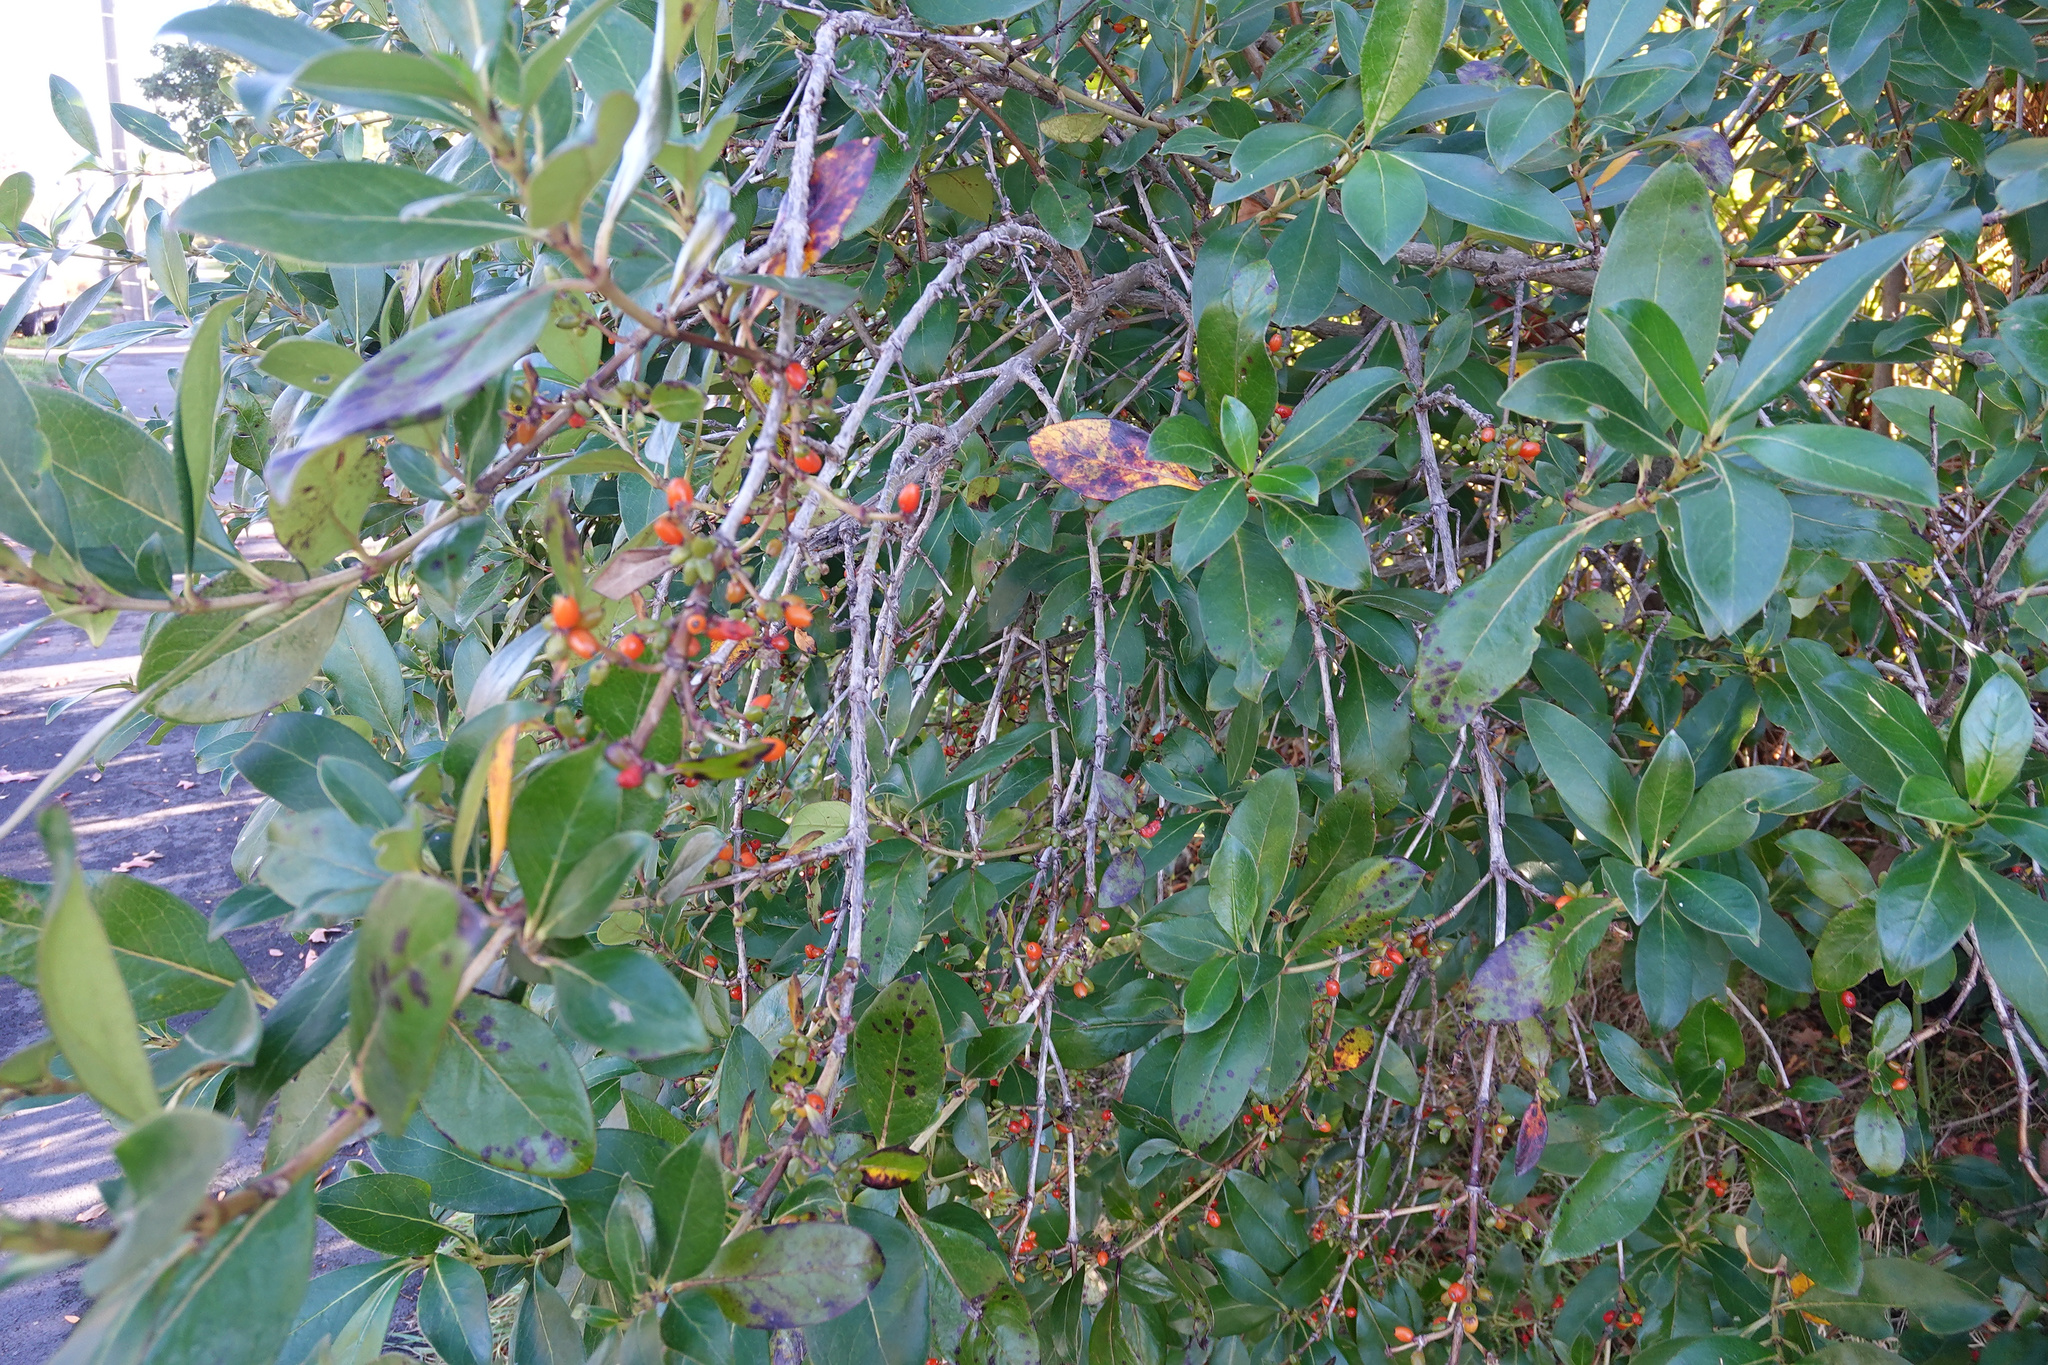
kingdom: Plantae
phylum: Tracheophyta
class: Magnoliopsida
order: Gentianales
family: Rubiaceae
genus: Coprosma
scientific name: Coprosma robusta
